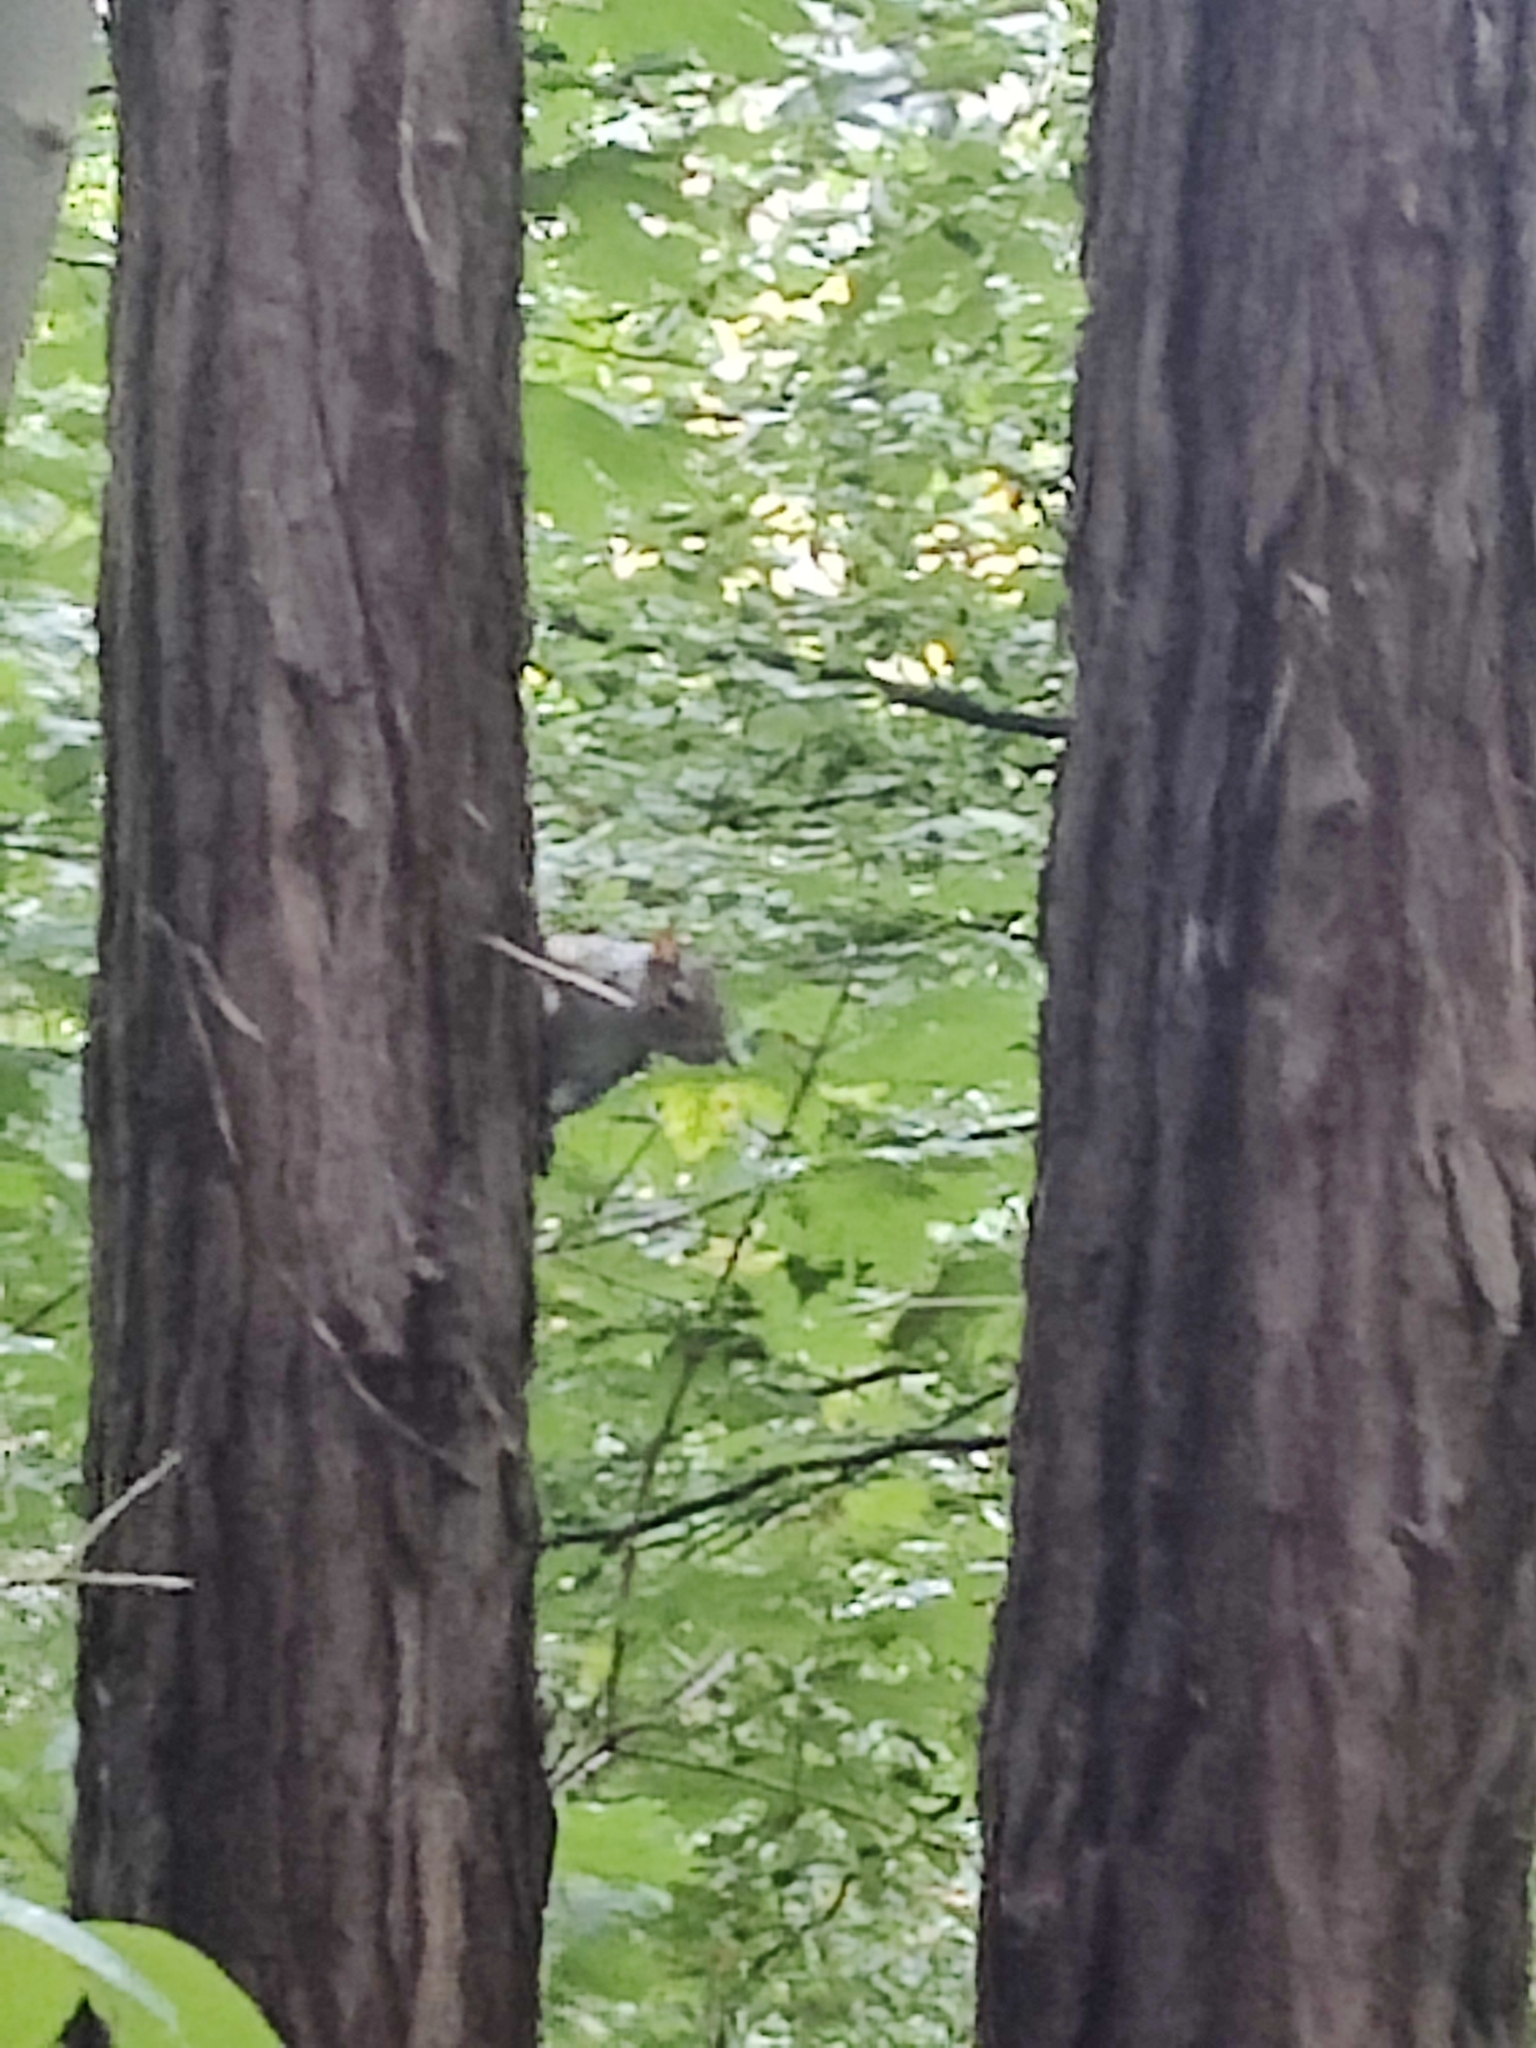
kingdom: Animalia
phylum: Chordata
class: Mammalia
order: Rodentia
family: Sciuridae
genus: Sciurus
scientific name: Sciurus carolinensis
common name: Eastern gray squirrel
